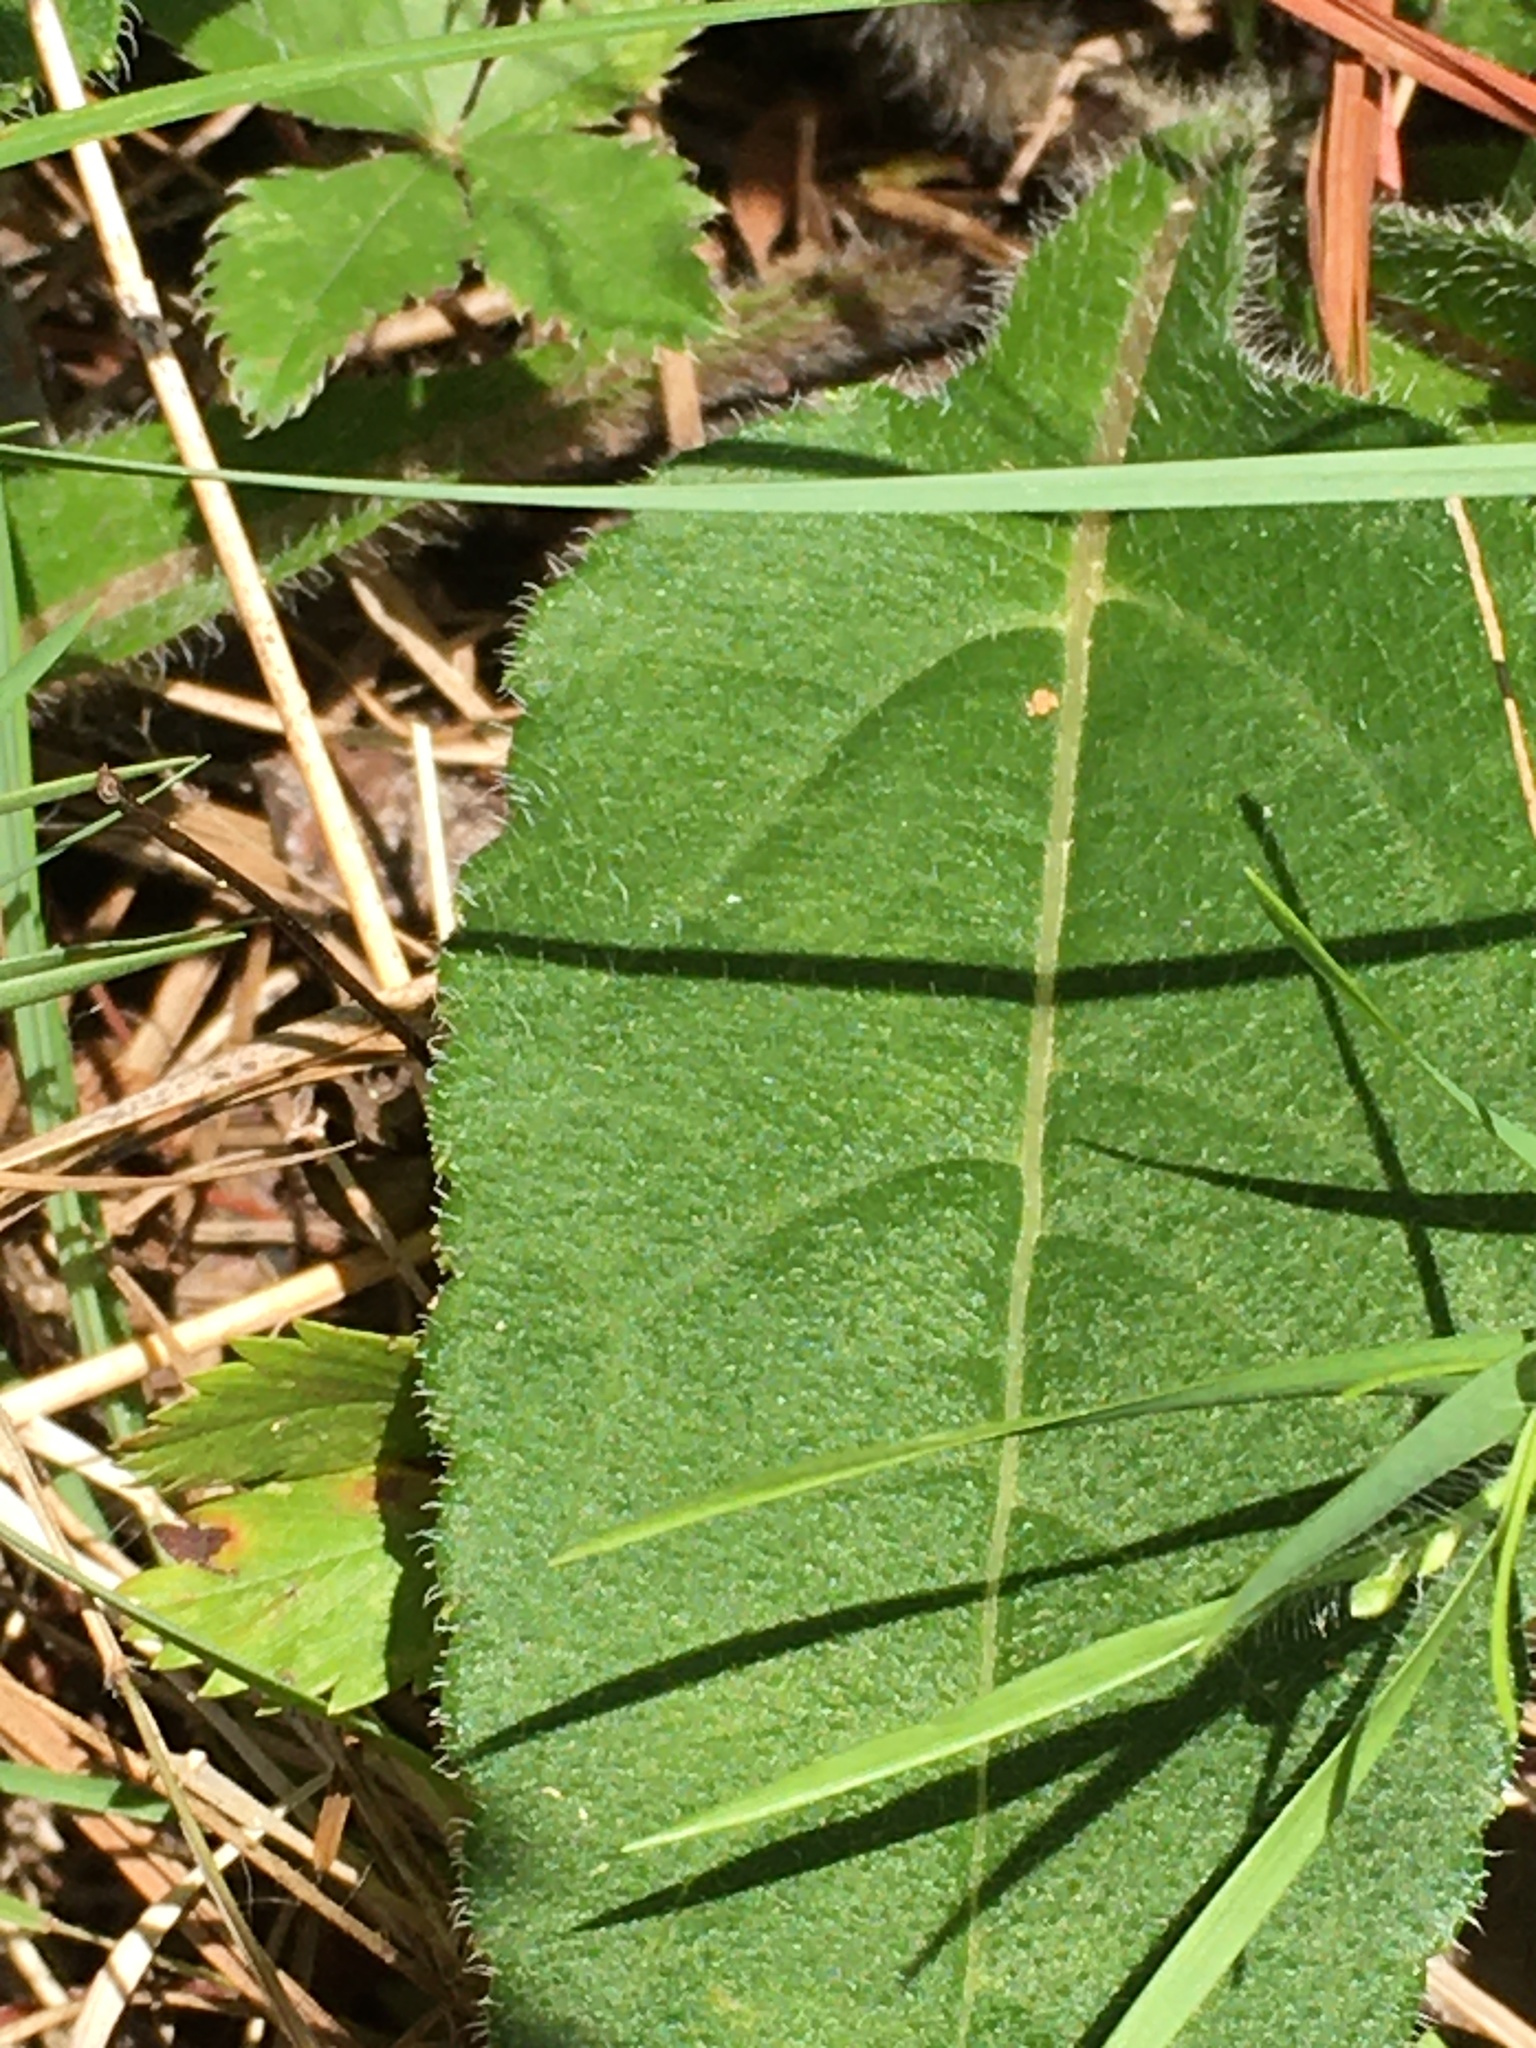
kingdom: Plantae
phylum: Tracheophyta
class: Magnoliopsida
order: Asterales
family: Asteraceae
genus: Helianthus
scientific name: Helianthus atrorubens
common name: Dark-eyed sunflower
